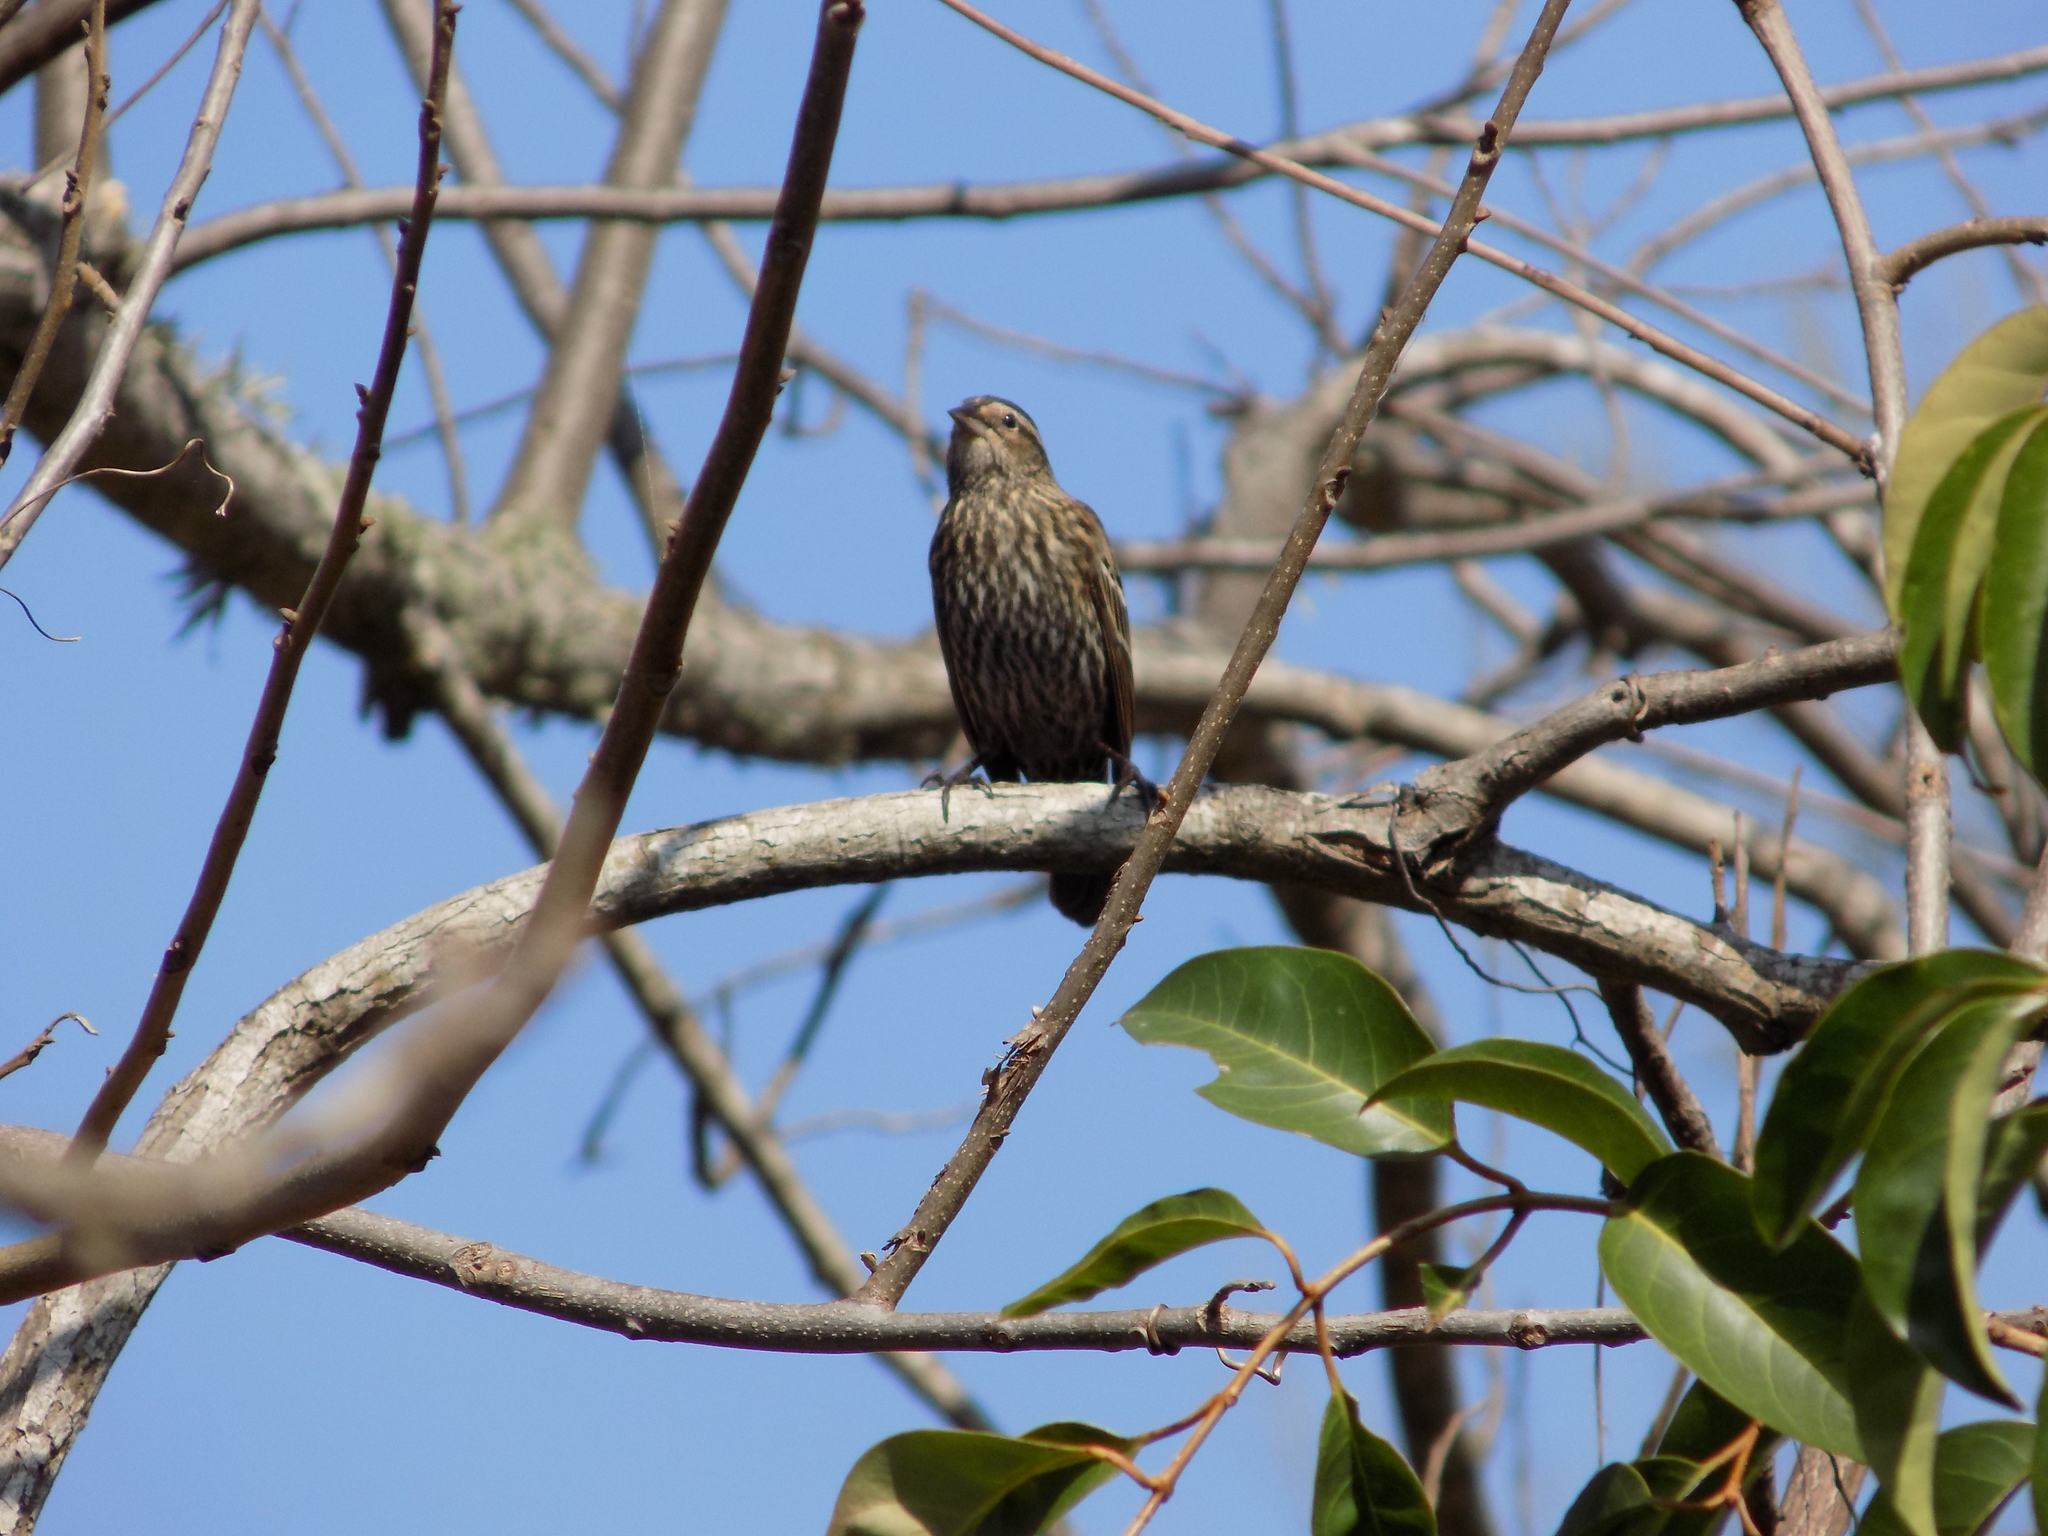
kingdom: Animalia
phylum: Chordata
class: Aves
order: Passeriformes
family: Icteridae
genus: Agelaius
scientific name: Agelaius phoeniceus
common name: Red-winged blackbird
